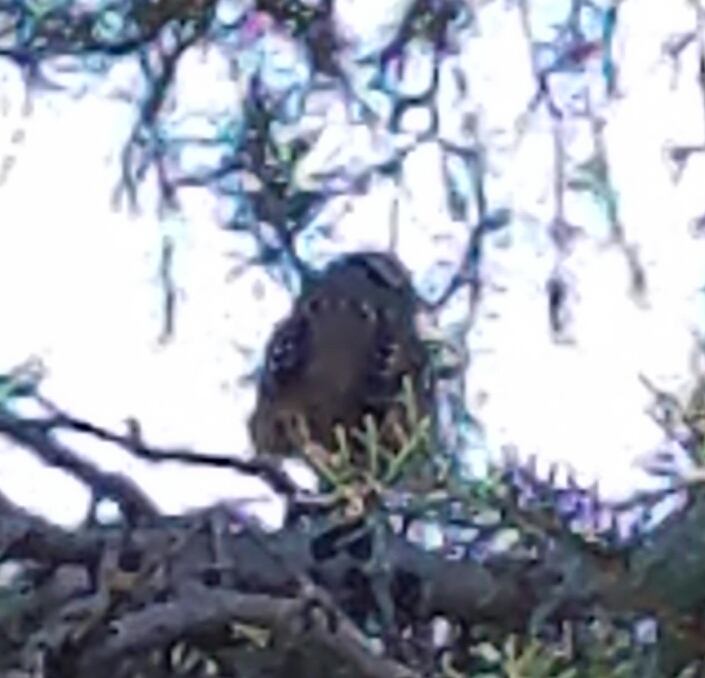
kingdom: Animalia
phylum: Chordata
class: Aves
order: Passeriformes
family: Passerellidae
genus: Zonotrichia
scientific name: Zonotrichia leucophrys
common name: White-crowned sparrow
